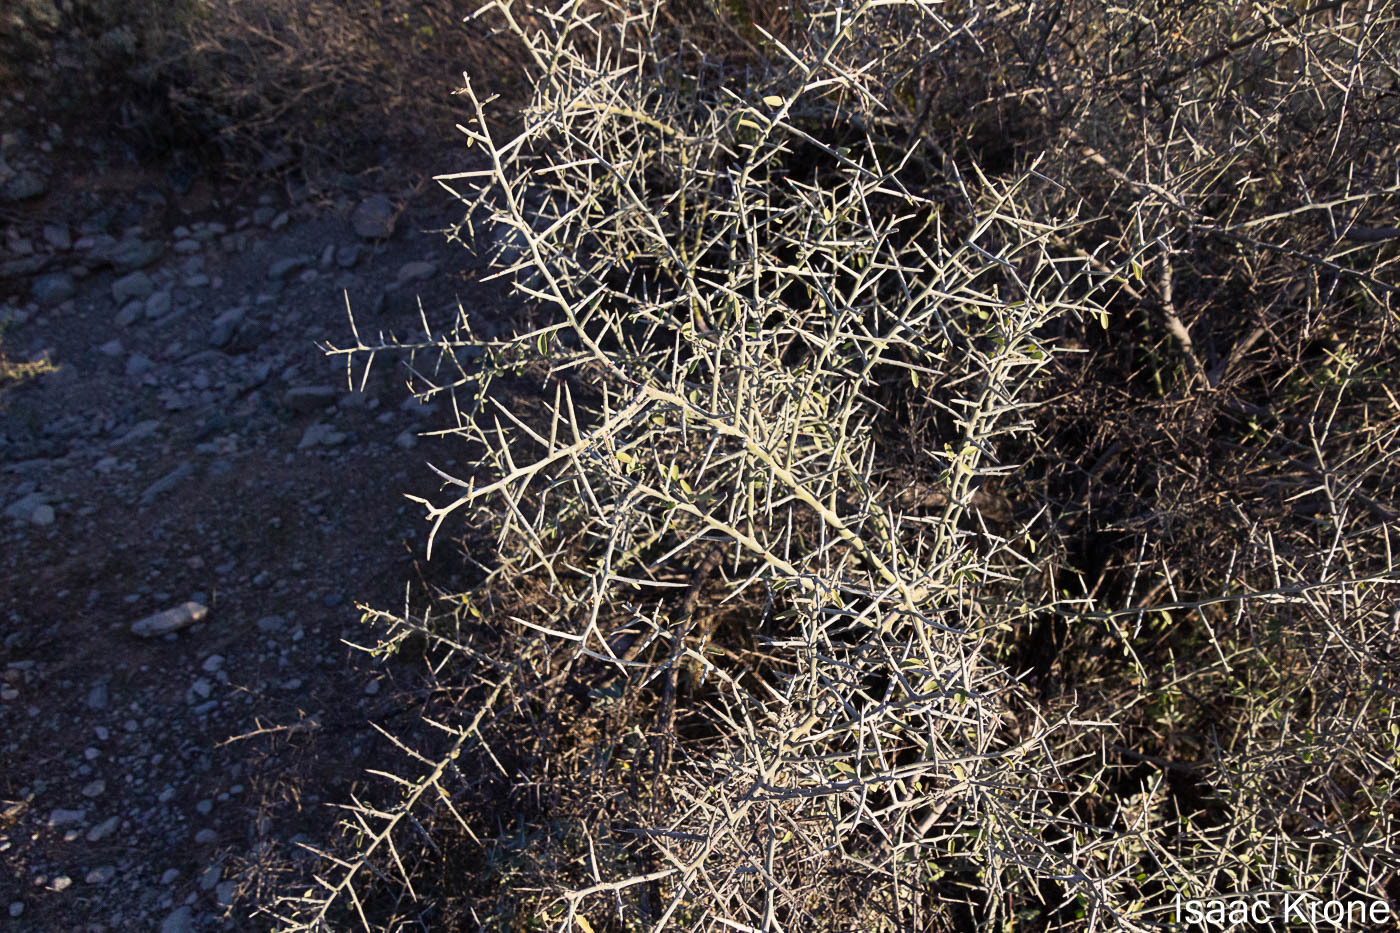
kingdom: Plantae
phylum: Tracheophyta
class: Magnoliopsida
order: Rosales
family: Rhamnaceae
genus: Sarcomphalus
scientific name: Sarcomphalus obtusifolius
